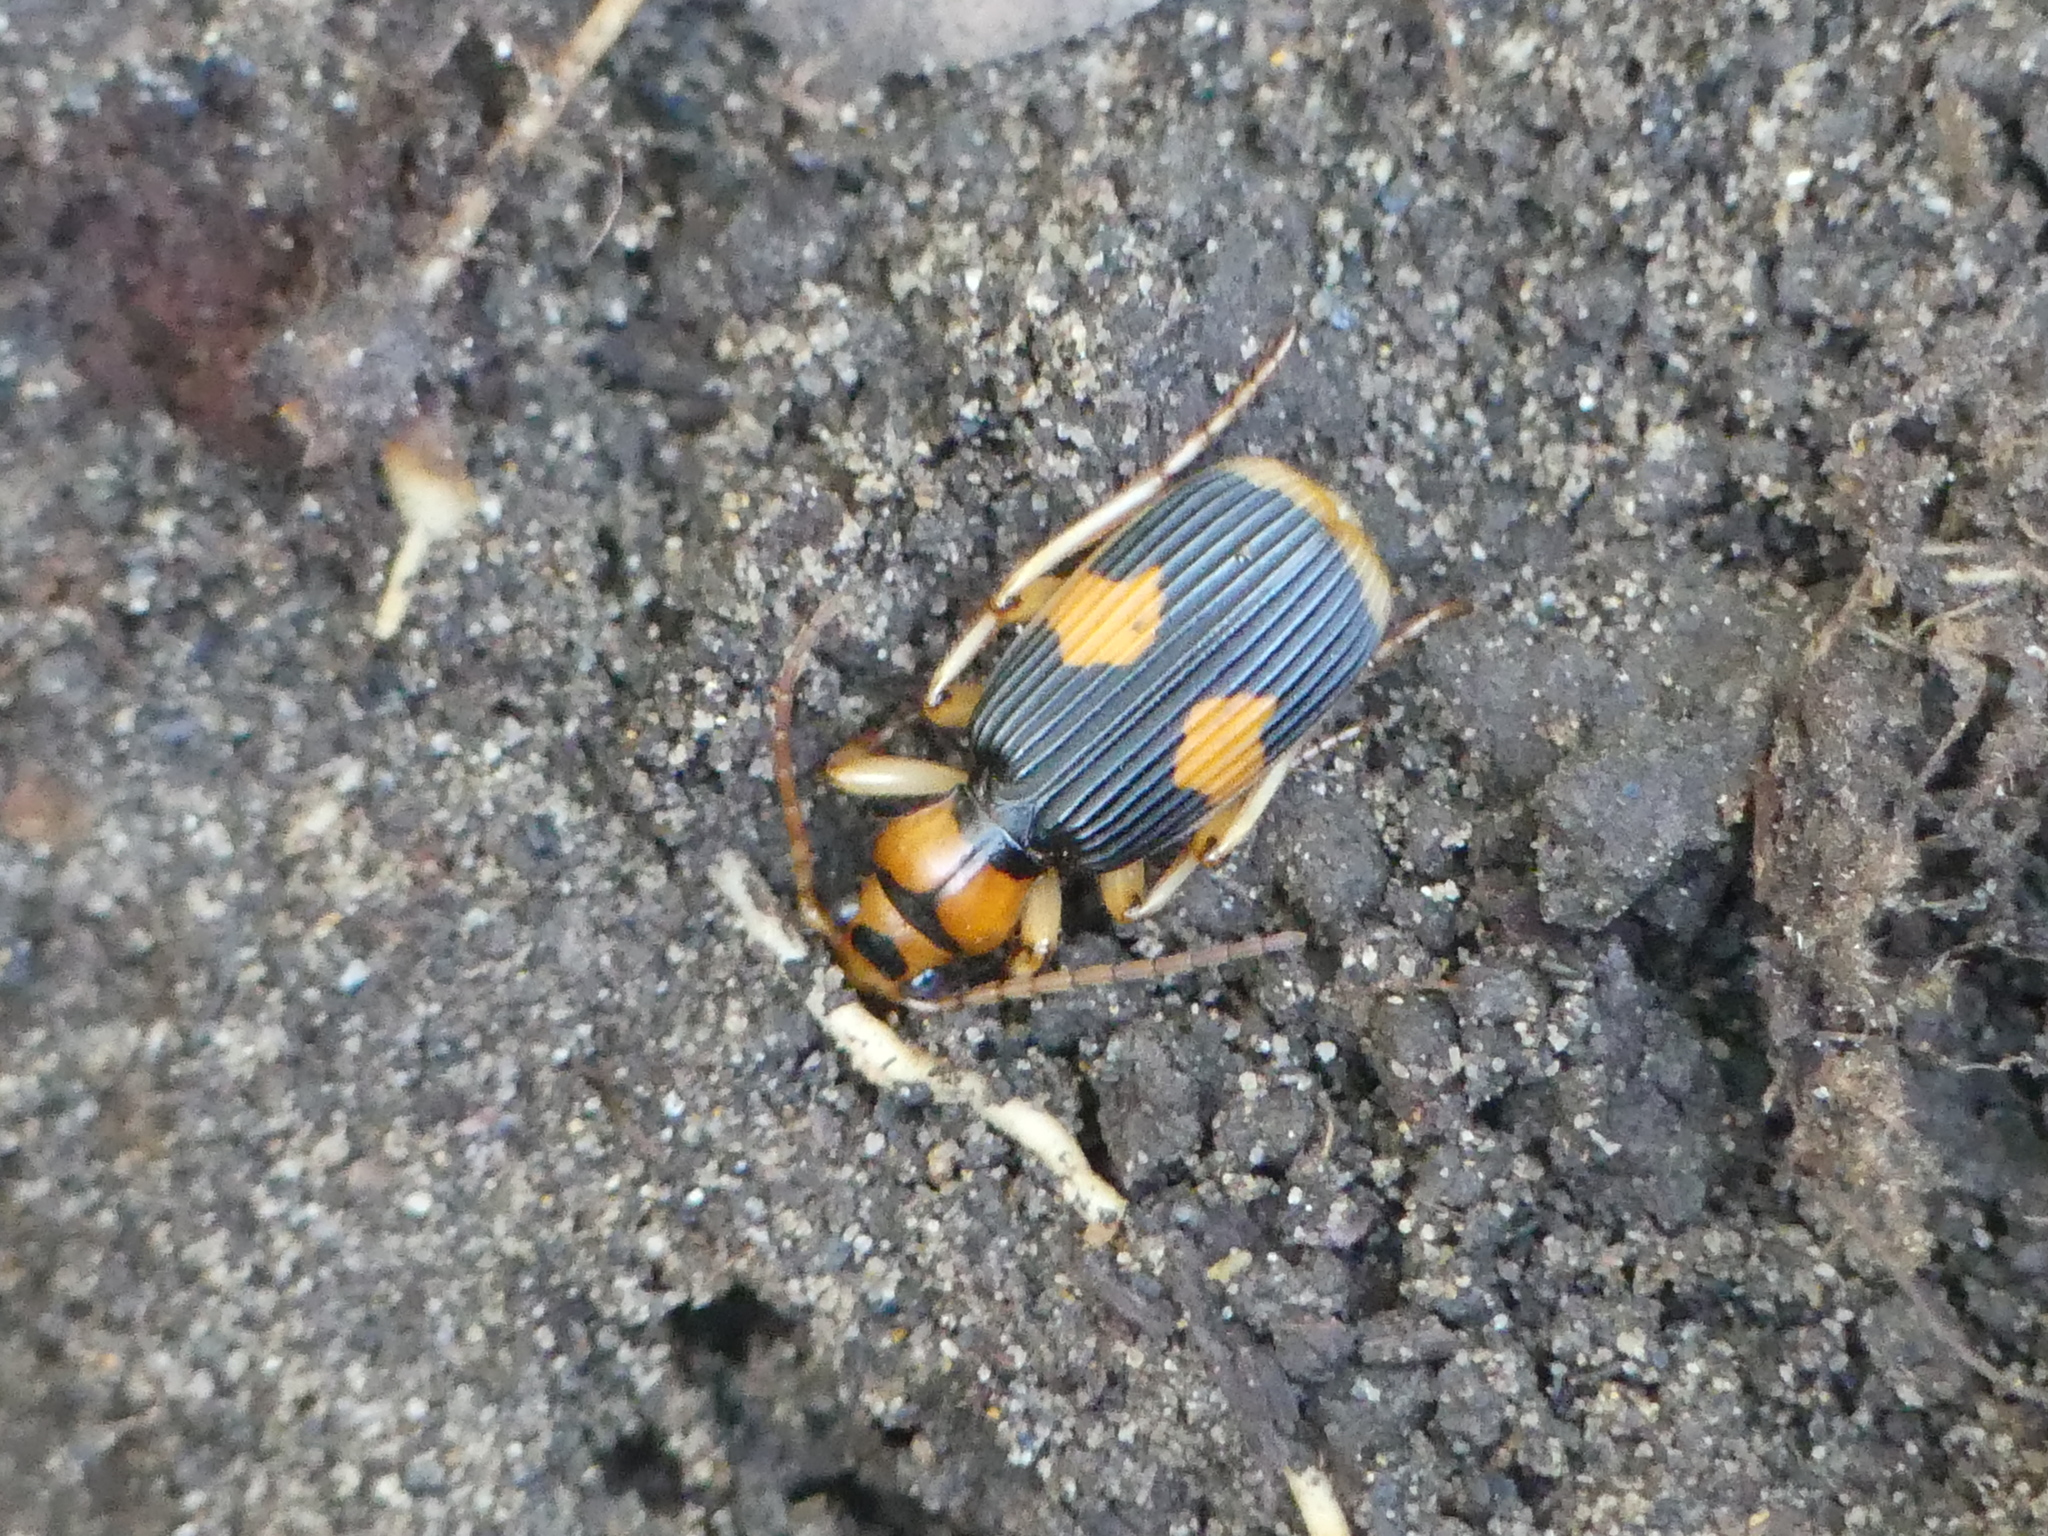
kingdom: Animalia
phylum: Arthropoda
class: Insecta
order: Coleoptera
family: Carabidae
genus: Pheropsophus
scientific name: Pheropsophus verticalis
